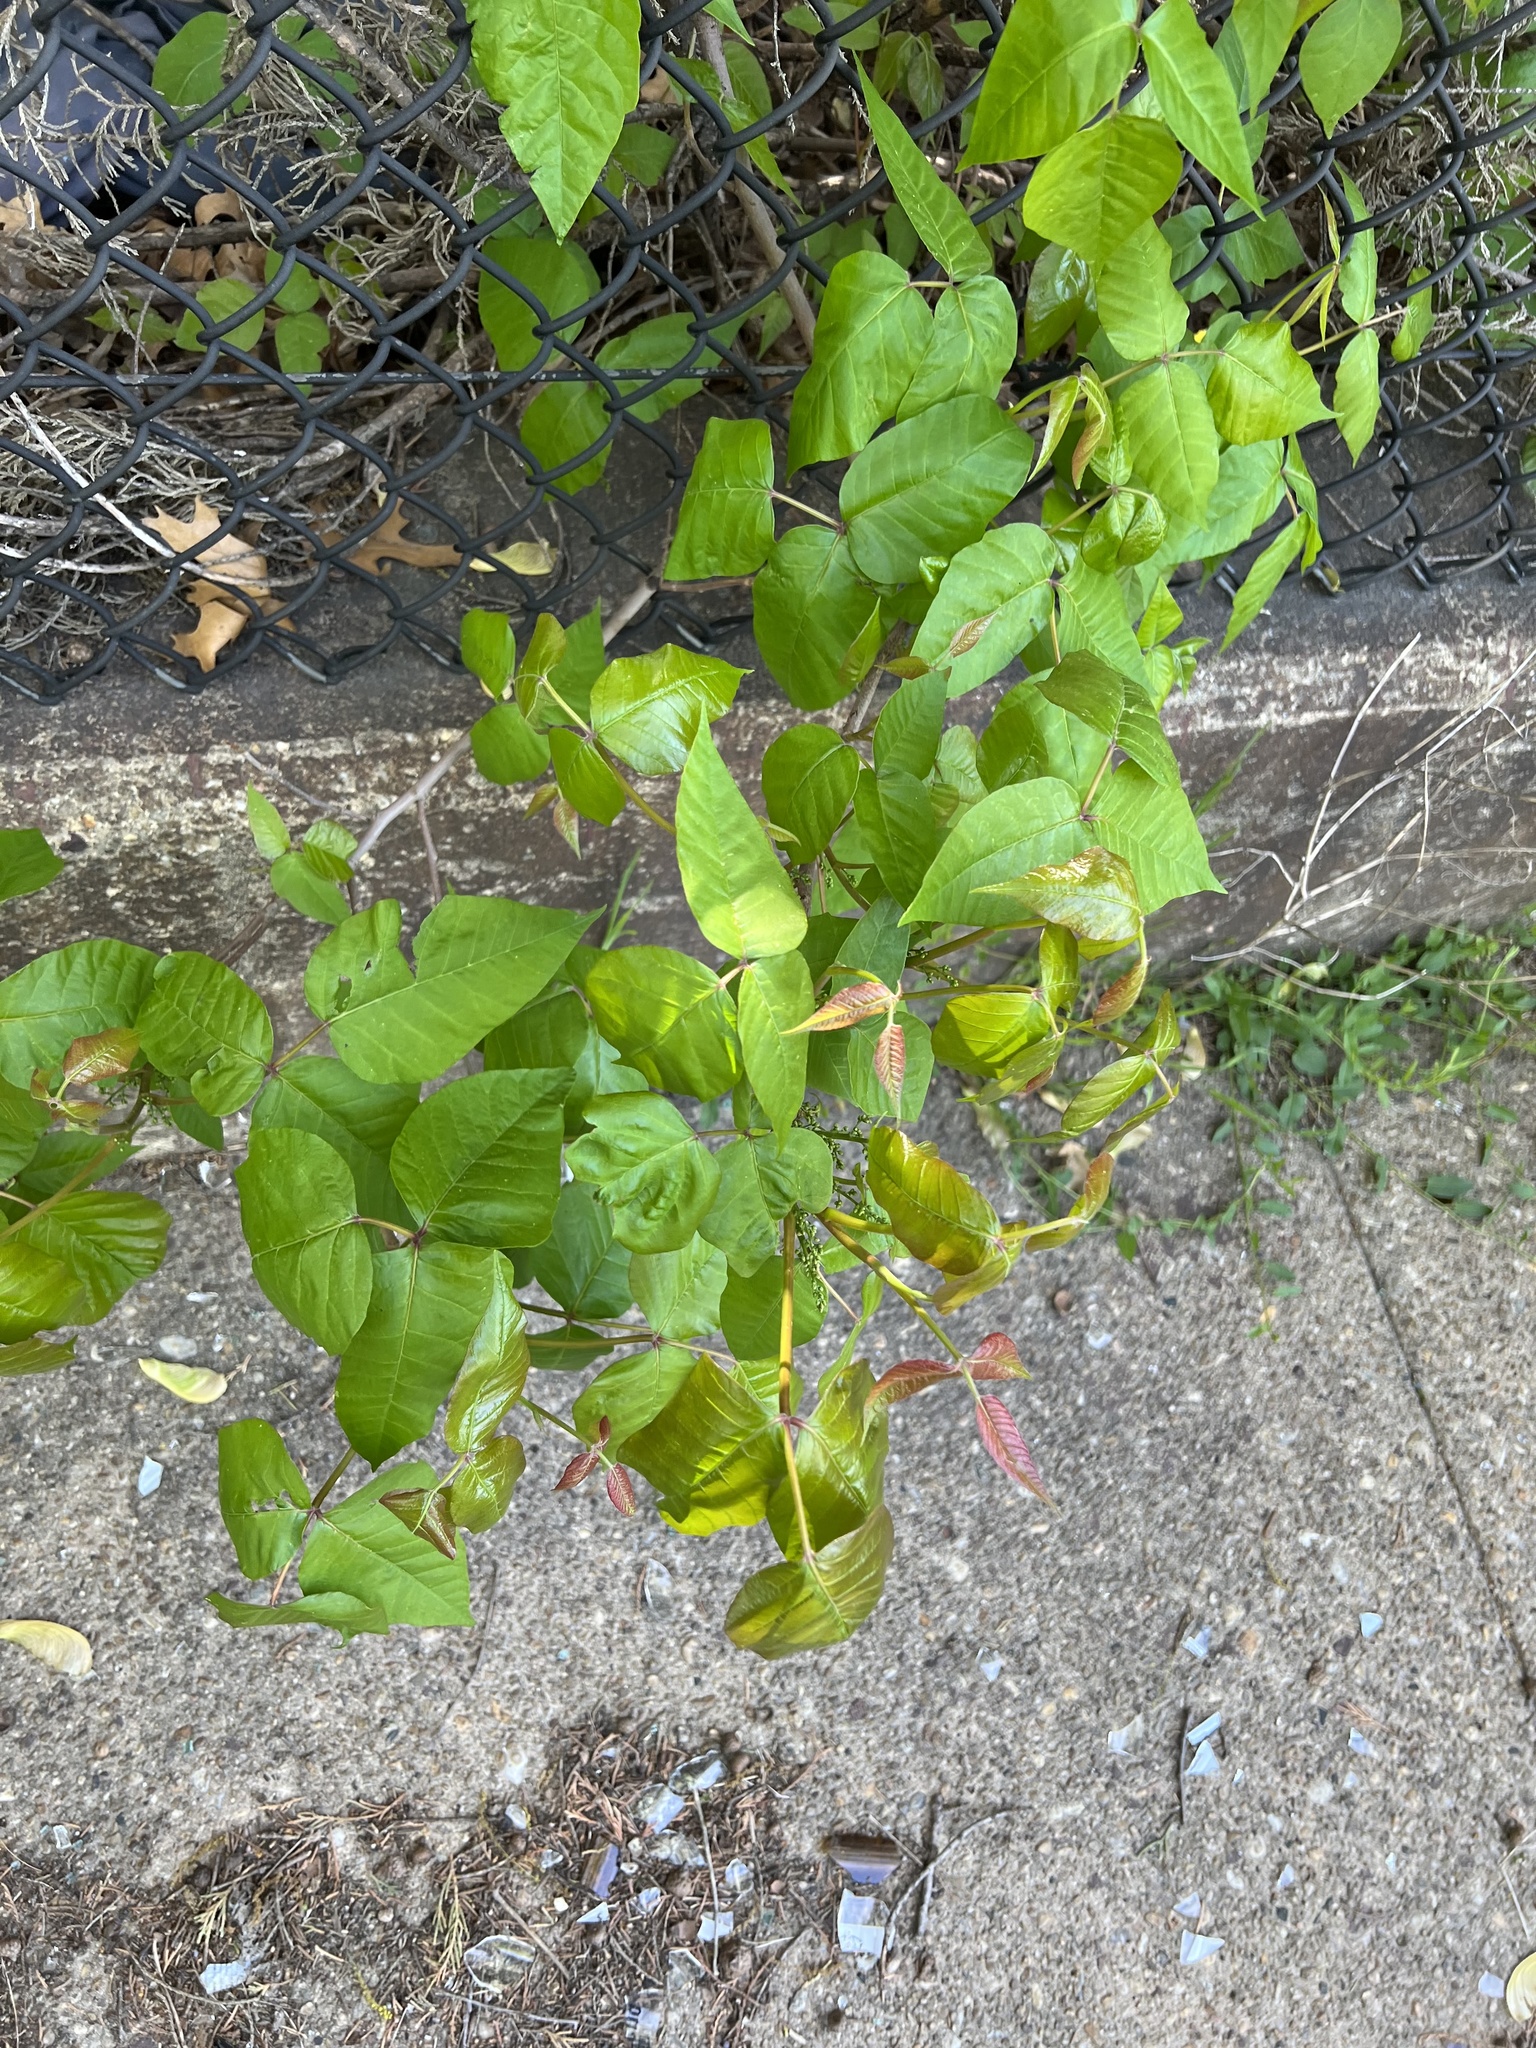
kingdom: Plantae
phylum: Tracheophyta
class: Magnoliopsida
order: Sapindales
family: Anacardiaceae
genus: Toxicodendron
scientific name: Toxicodendron radicans
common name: Poison ivy
